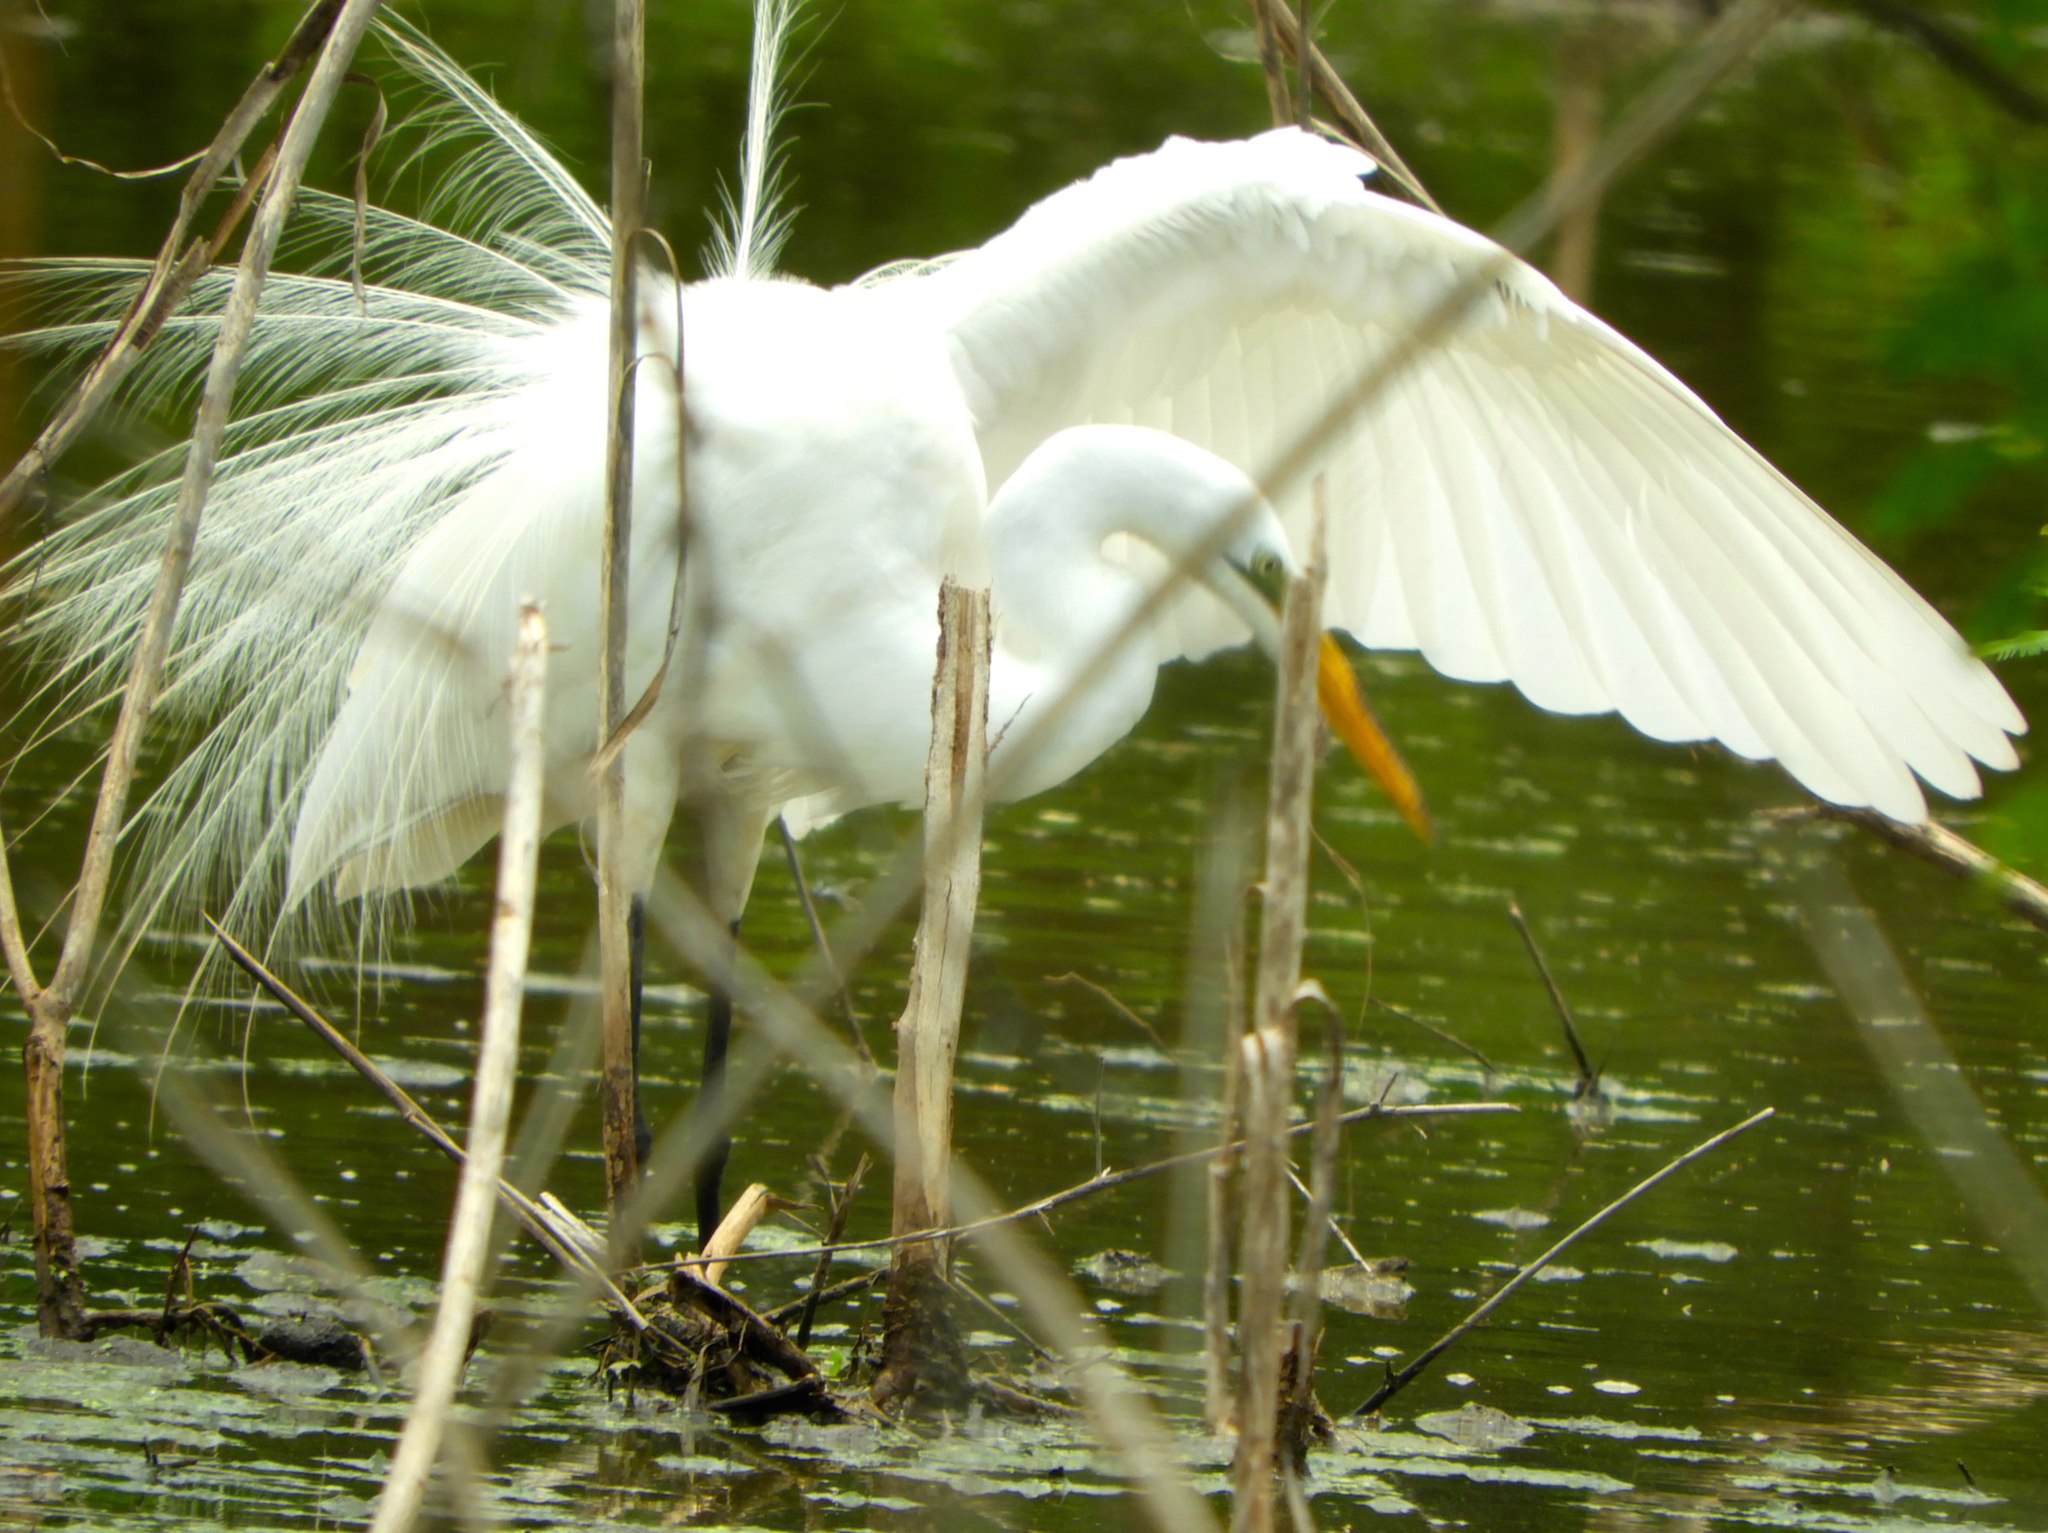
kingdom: Animalia
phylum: Chordata
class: Aves
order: Pelecaniformes
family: Ardeidae
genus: Ardea
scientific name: Ardea alba
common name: Great egret
